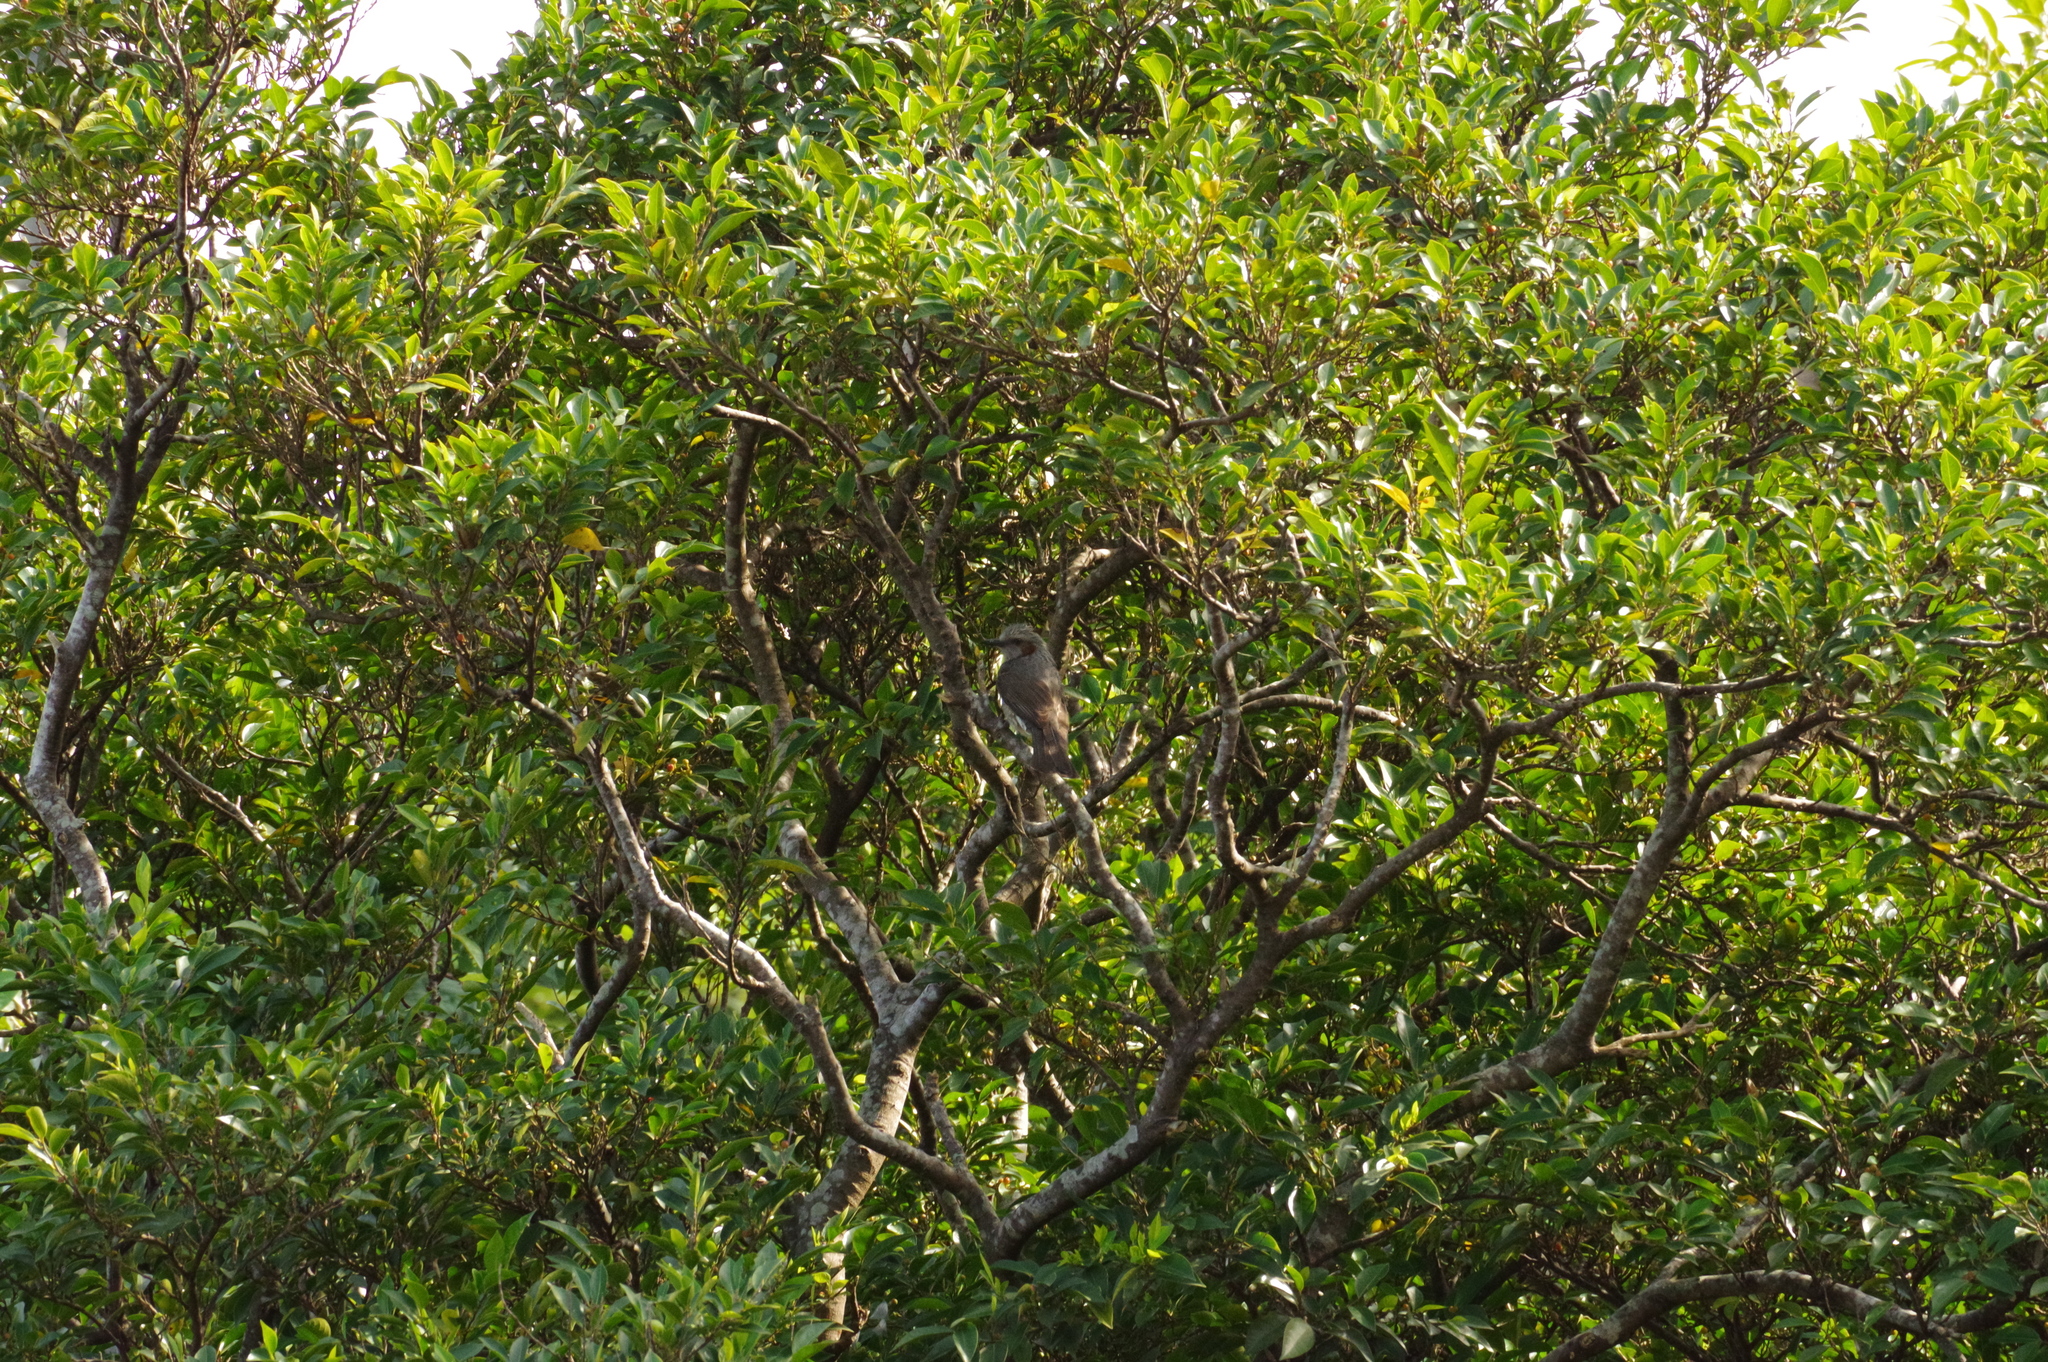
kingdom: Animalia
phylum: Chordata
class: Aves
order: Passeriformes
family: Pycnonotidae
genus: Hypsipetes
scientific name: Hypsipetes amaurotis
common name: Brown-eared bulbul
